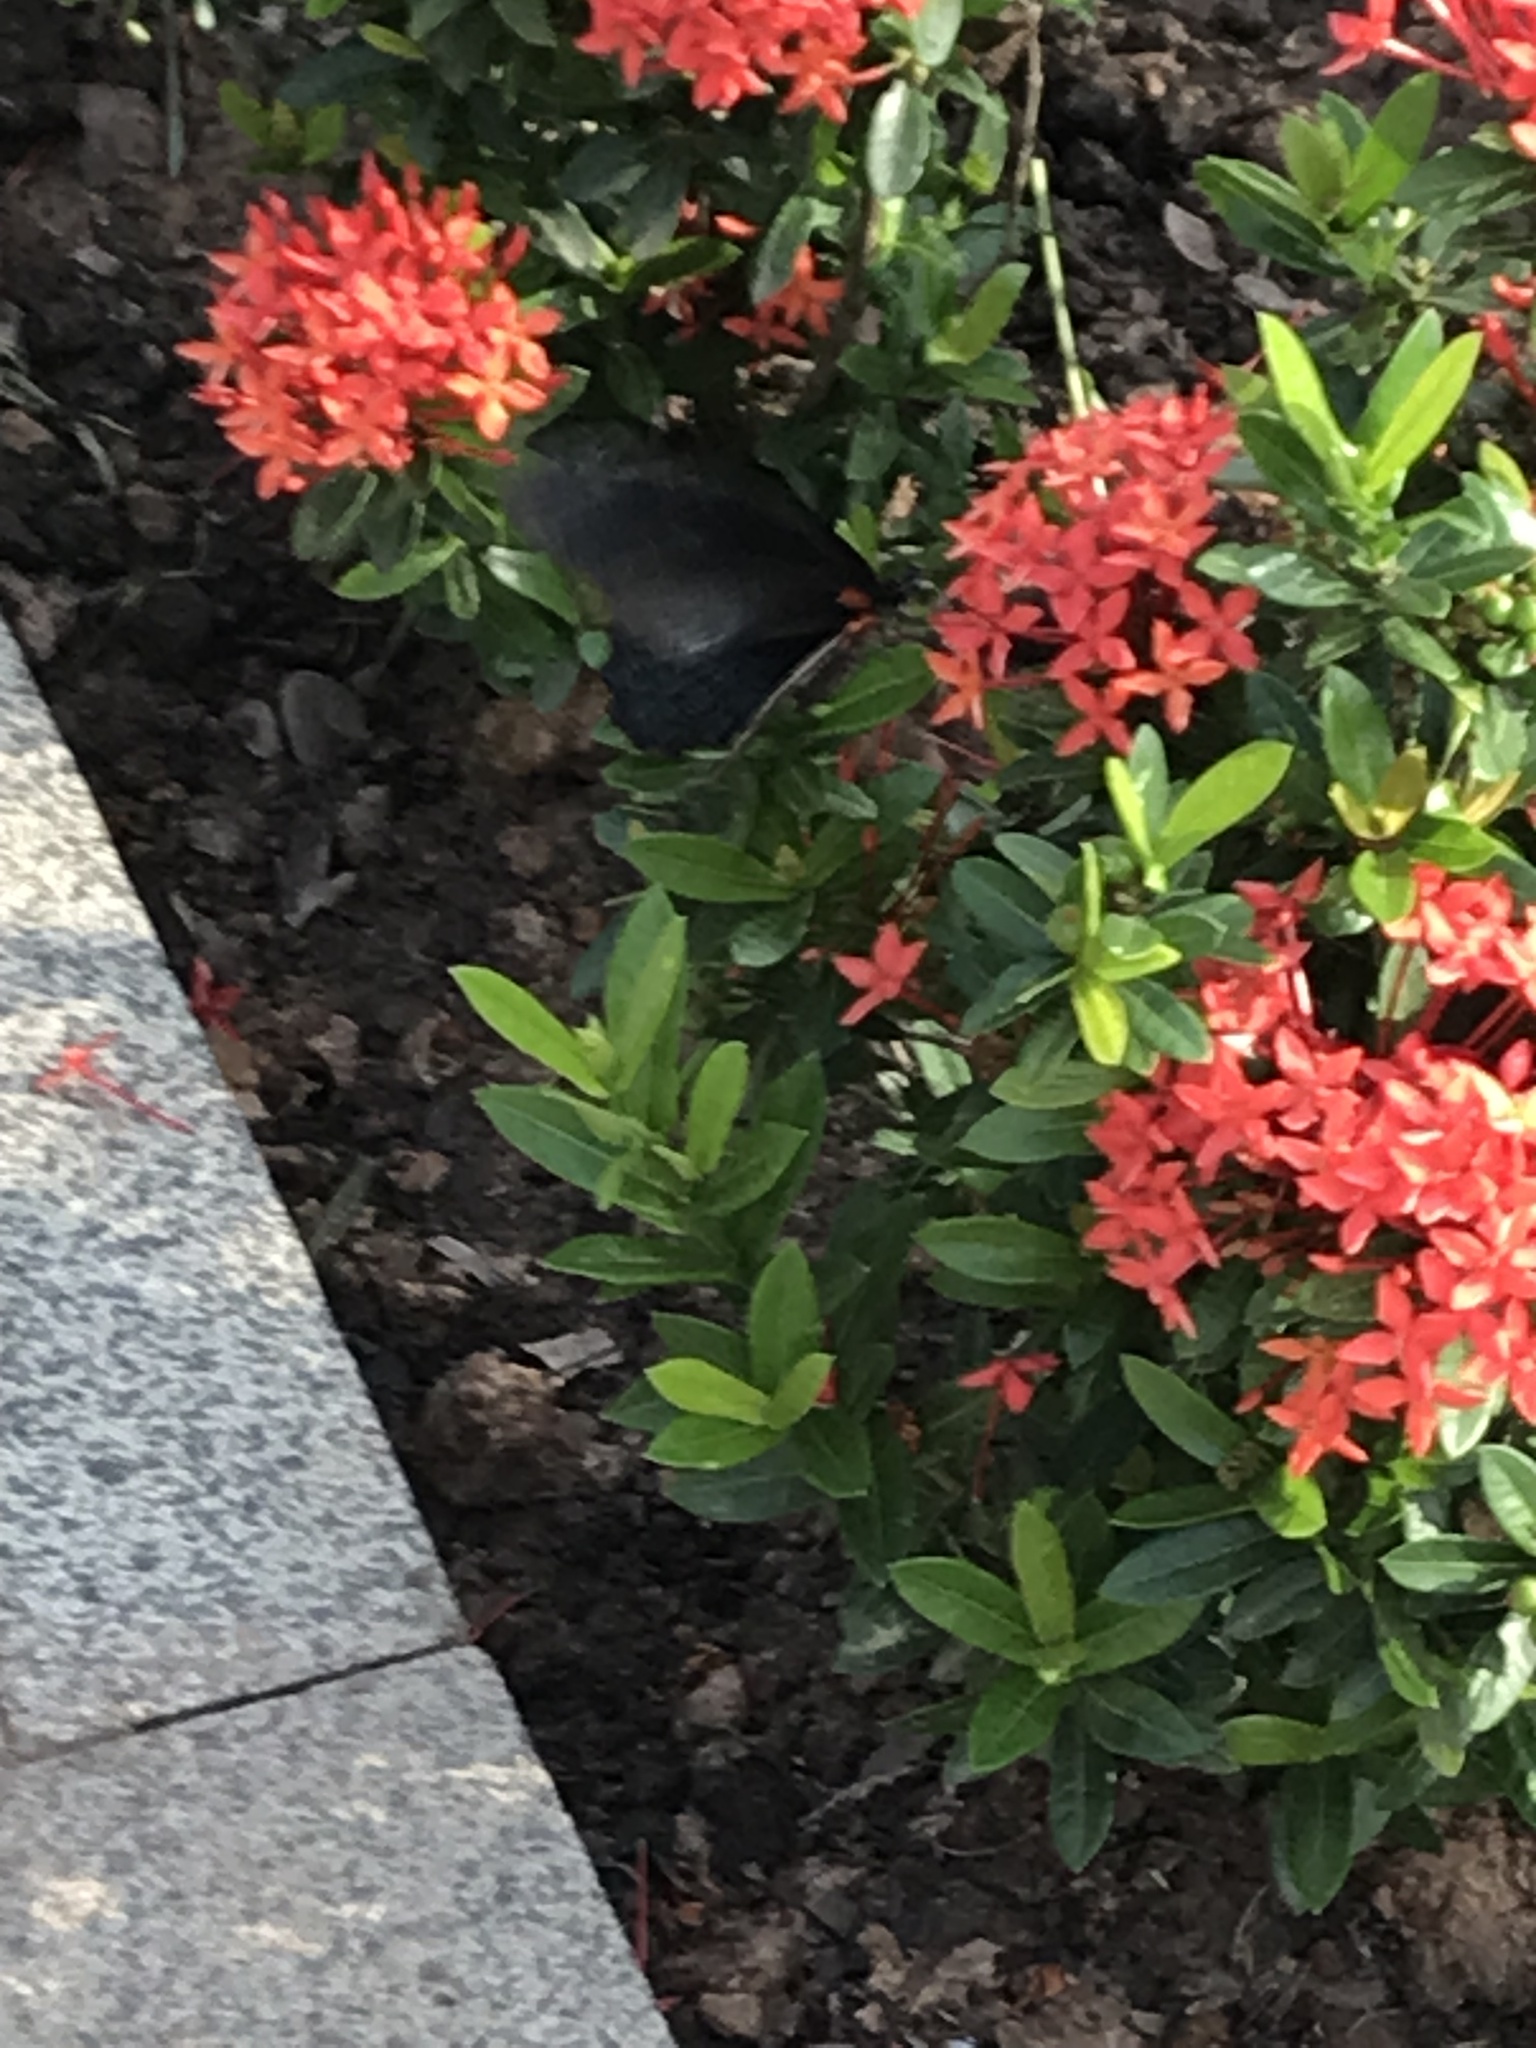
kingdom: Animalia
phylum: Arthropoda
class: Insecta
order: Lepidoptera
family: Papilionidae
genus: Papilio
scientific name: Papilio memnon
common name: Great mormon
